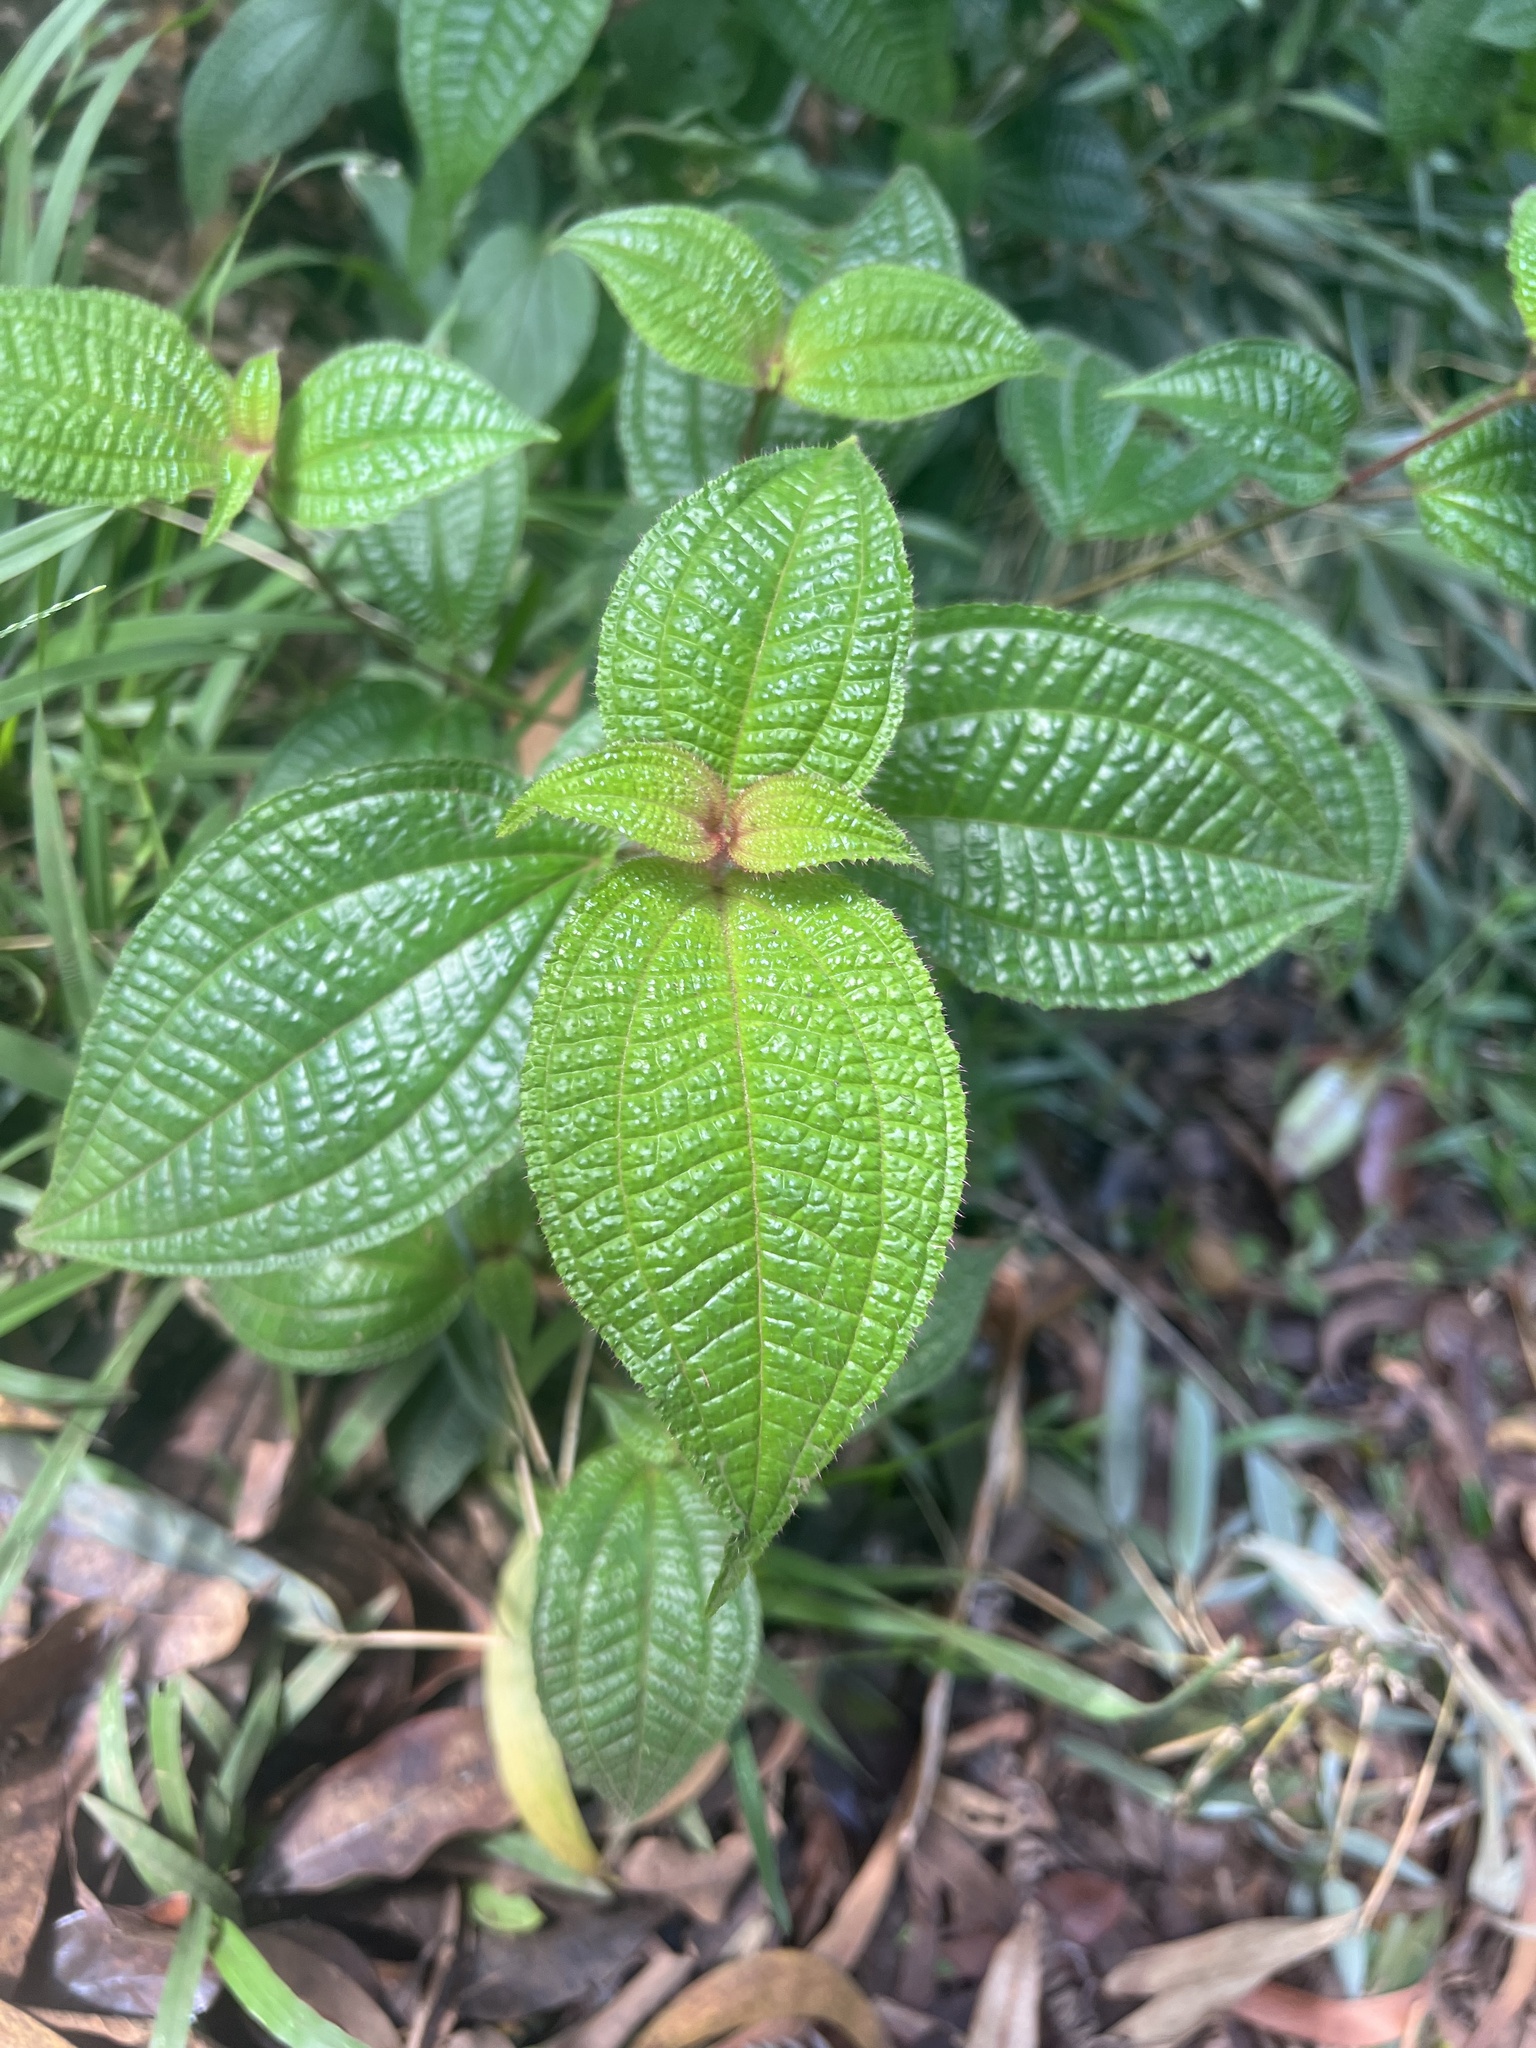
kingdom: Plantae
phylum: Tracheophyta
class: Magnoliopsida
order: Myrtales
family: Melastomataceae
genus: Miconia
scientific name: Miconia crenata
